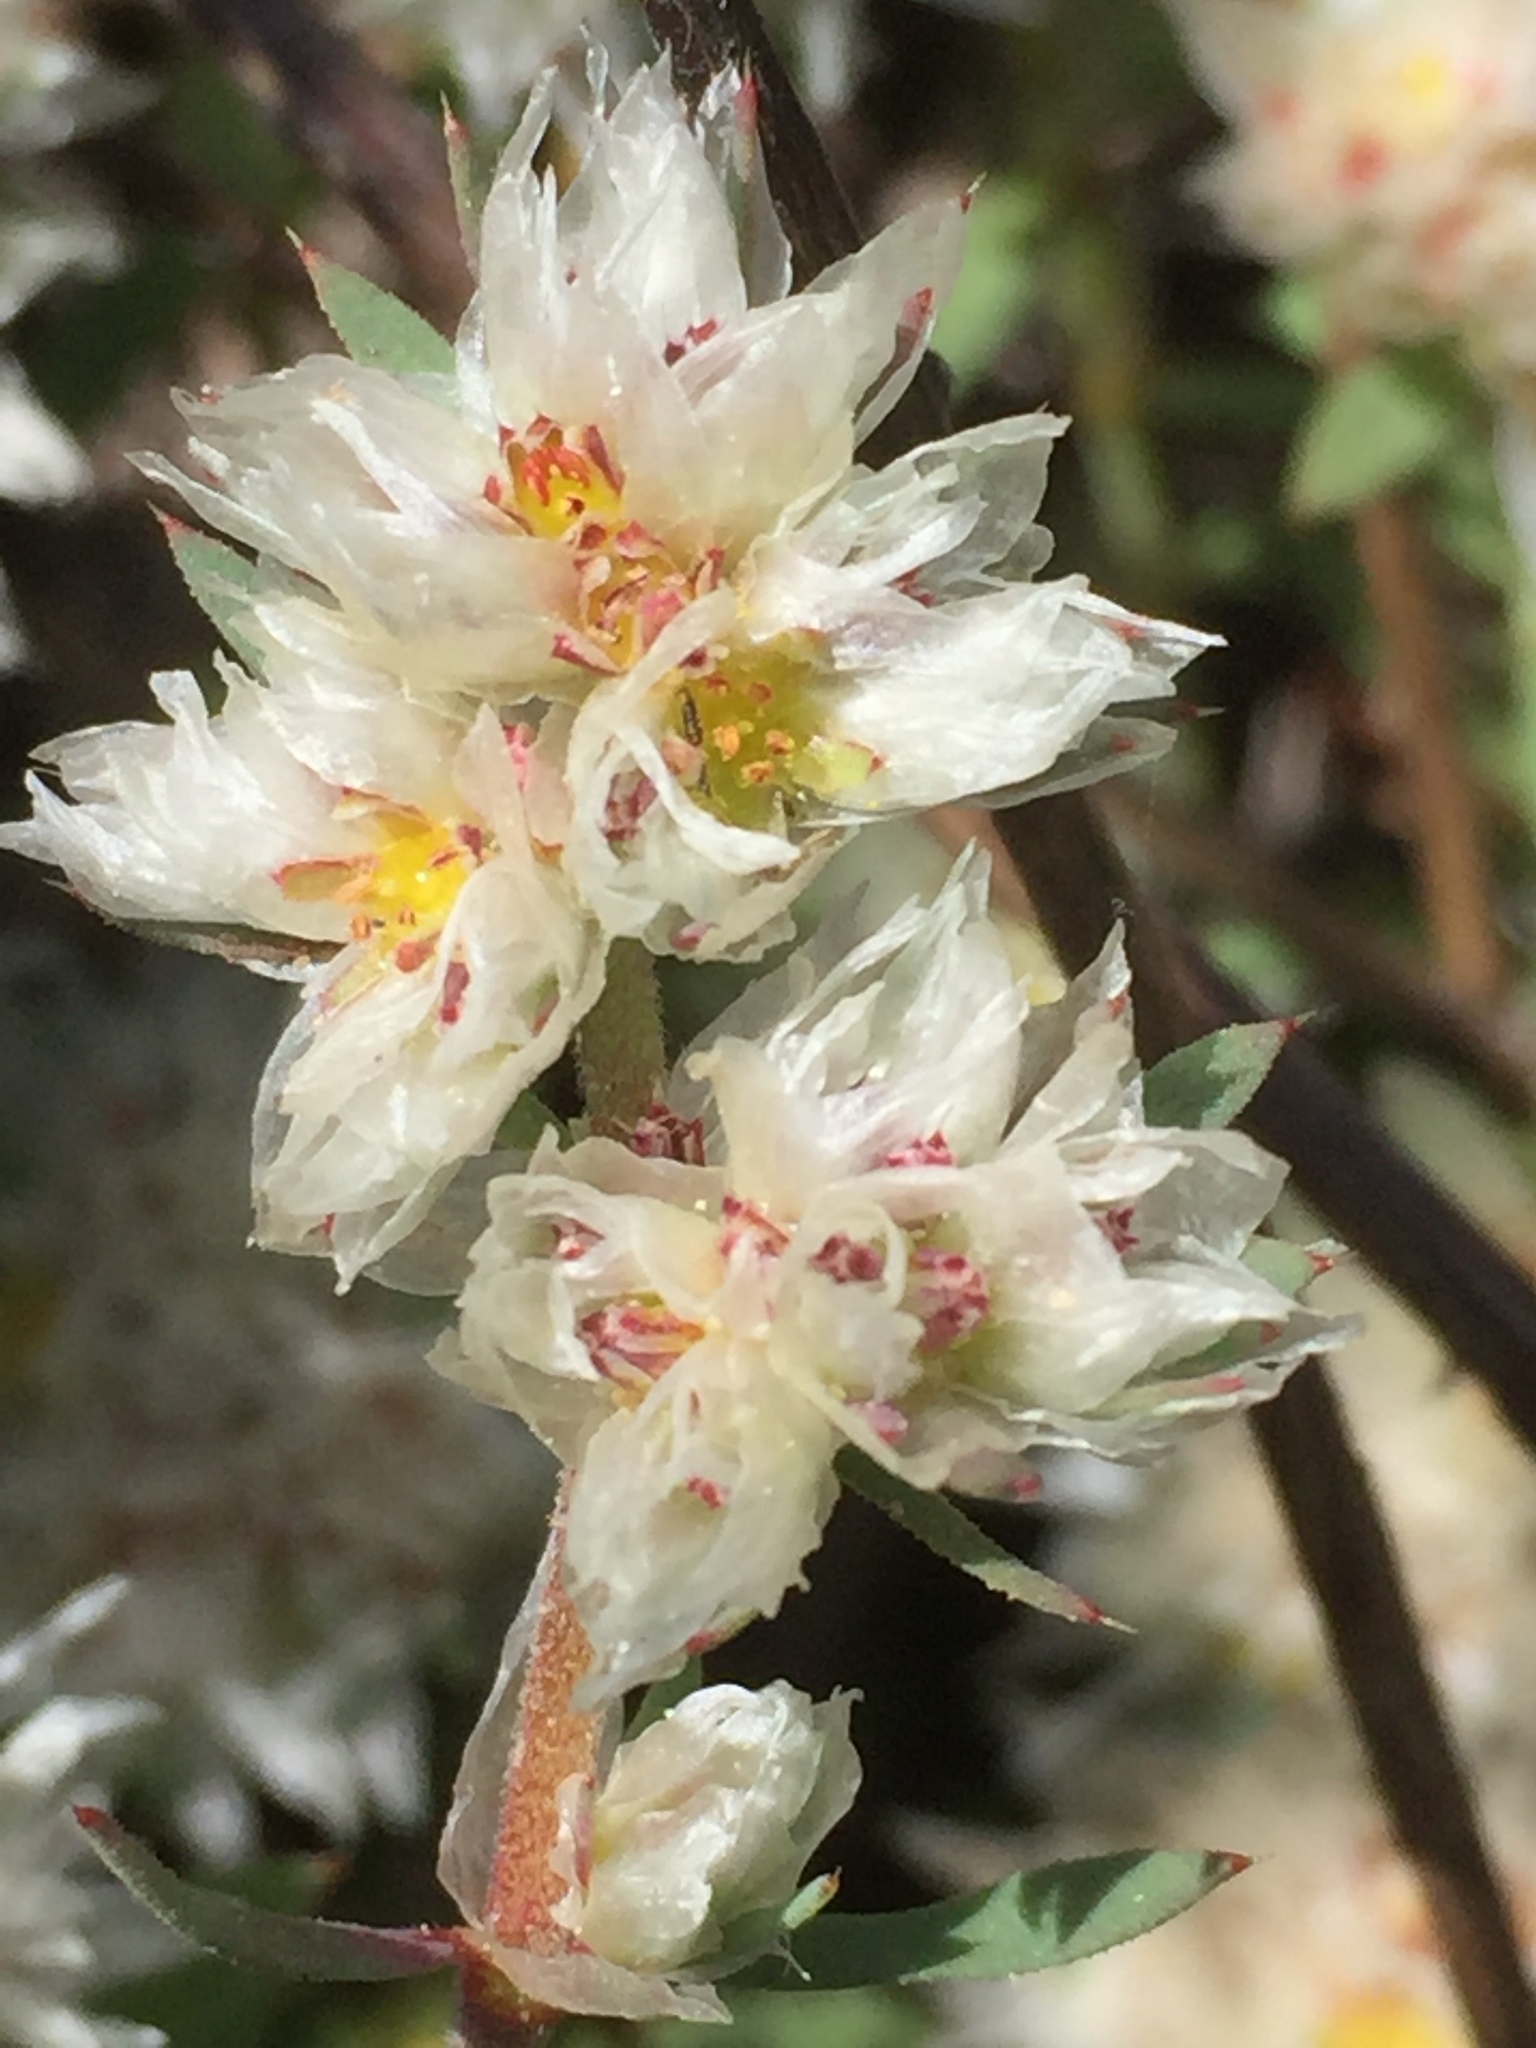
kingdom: Plantae
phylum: Tracheophyta
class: Magnoliopsida
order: Caryophyllales
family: Caryophyllaceae
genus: Paronychia
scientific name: Paronychia argentea
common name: Silver nailroot
